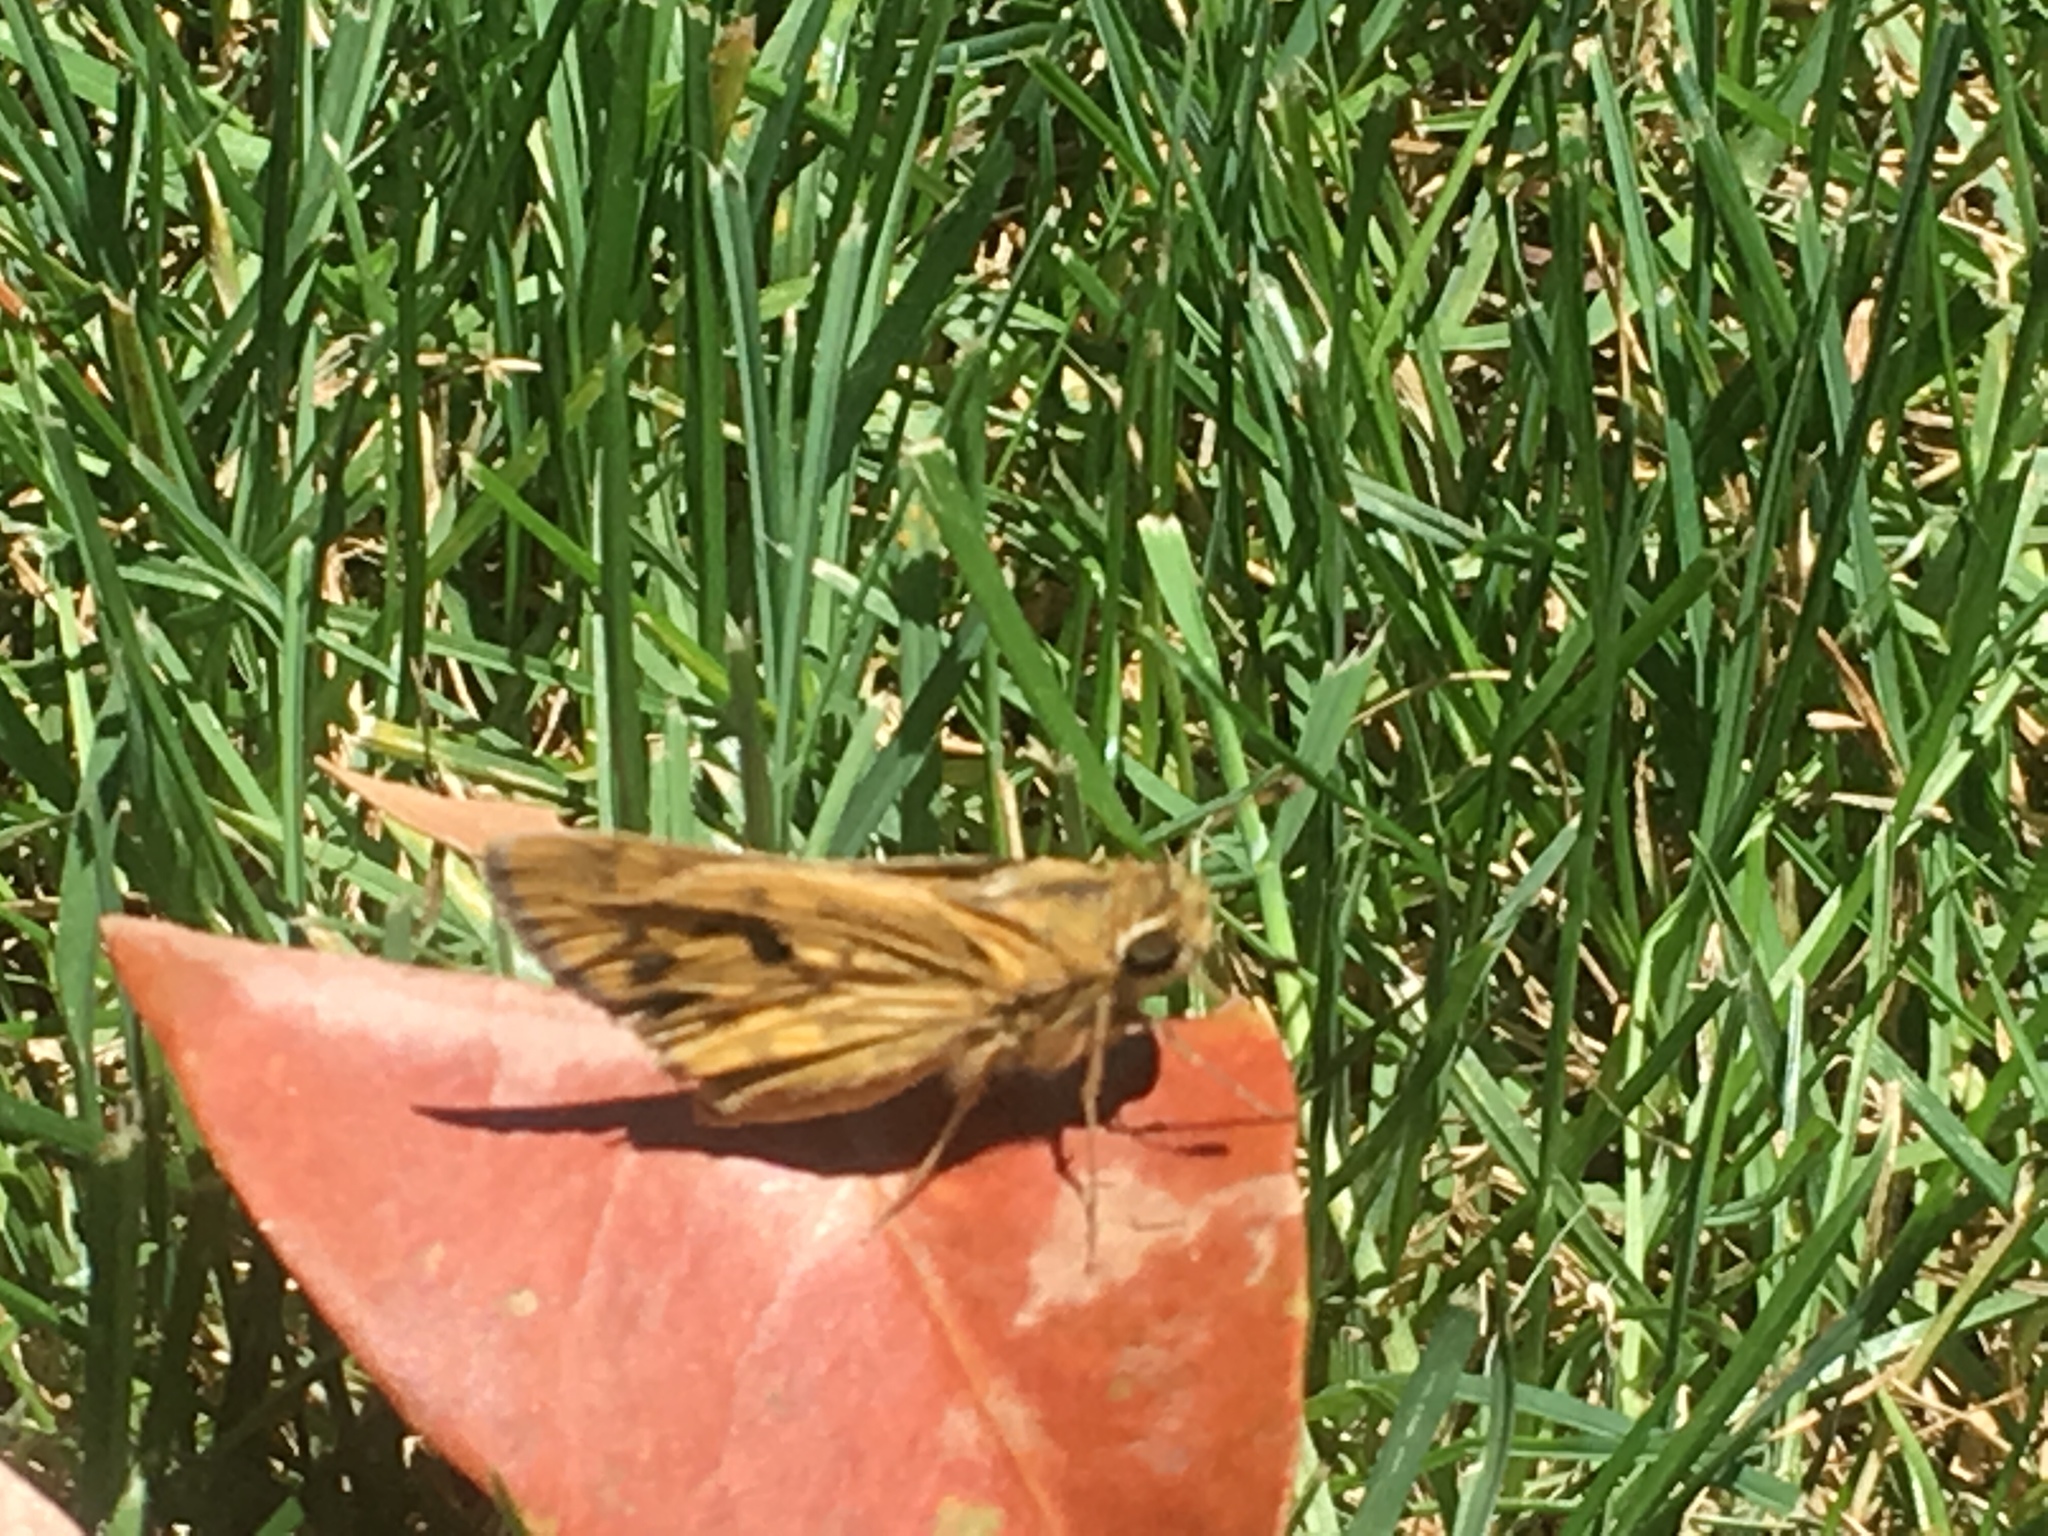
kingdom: Animalia
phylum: Arthropoda
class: Insecta
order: Lepidoptera
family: Hesperiidae
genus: Hylephila
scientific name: Hylephila phyleus
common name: Fiery skipper
